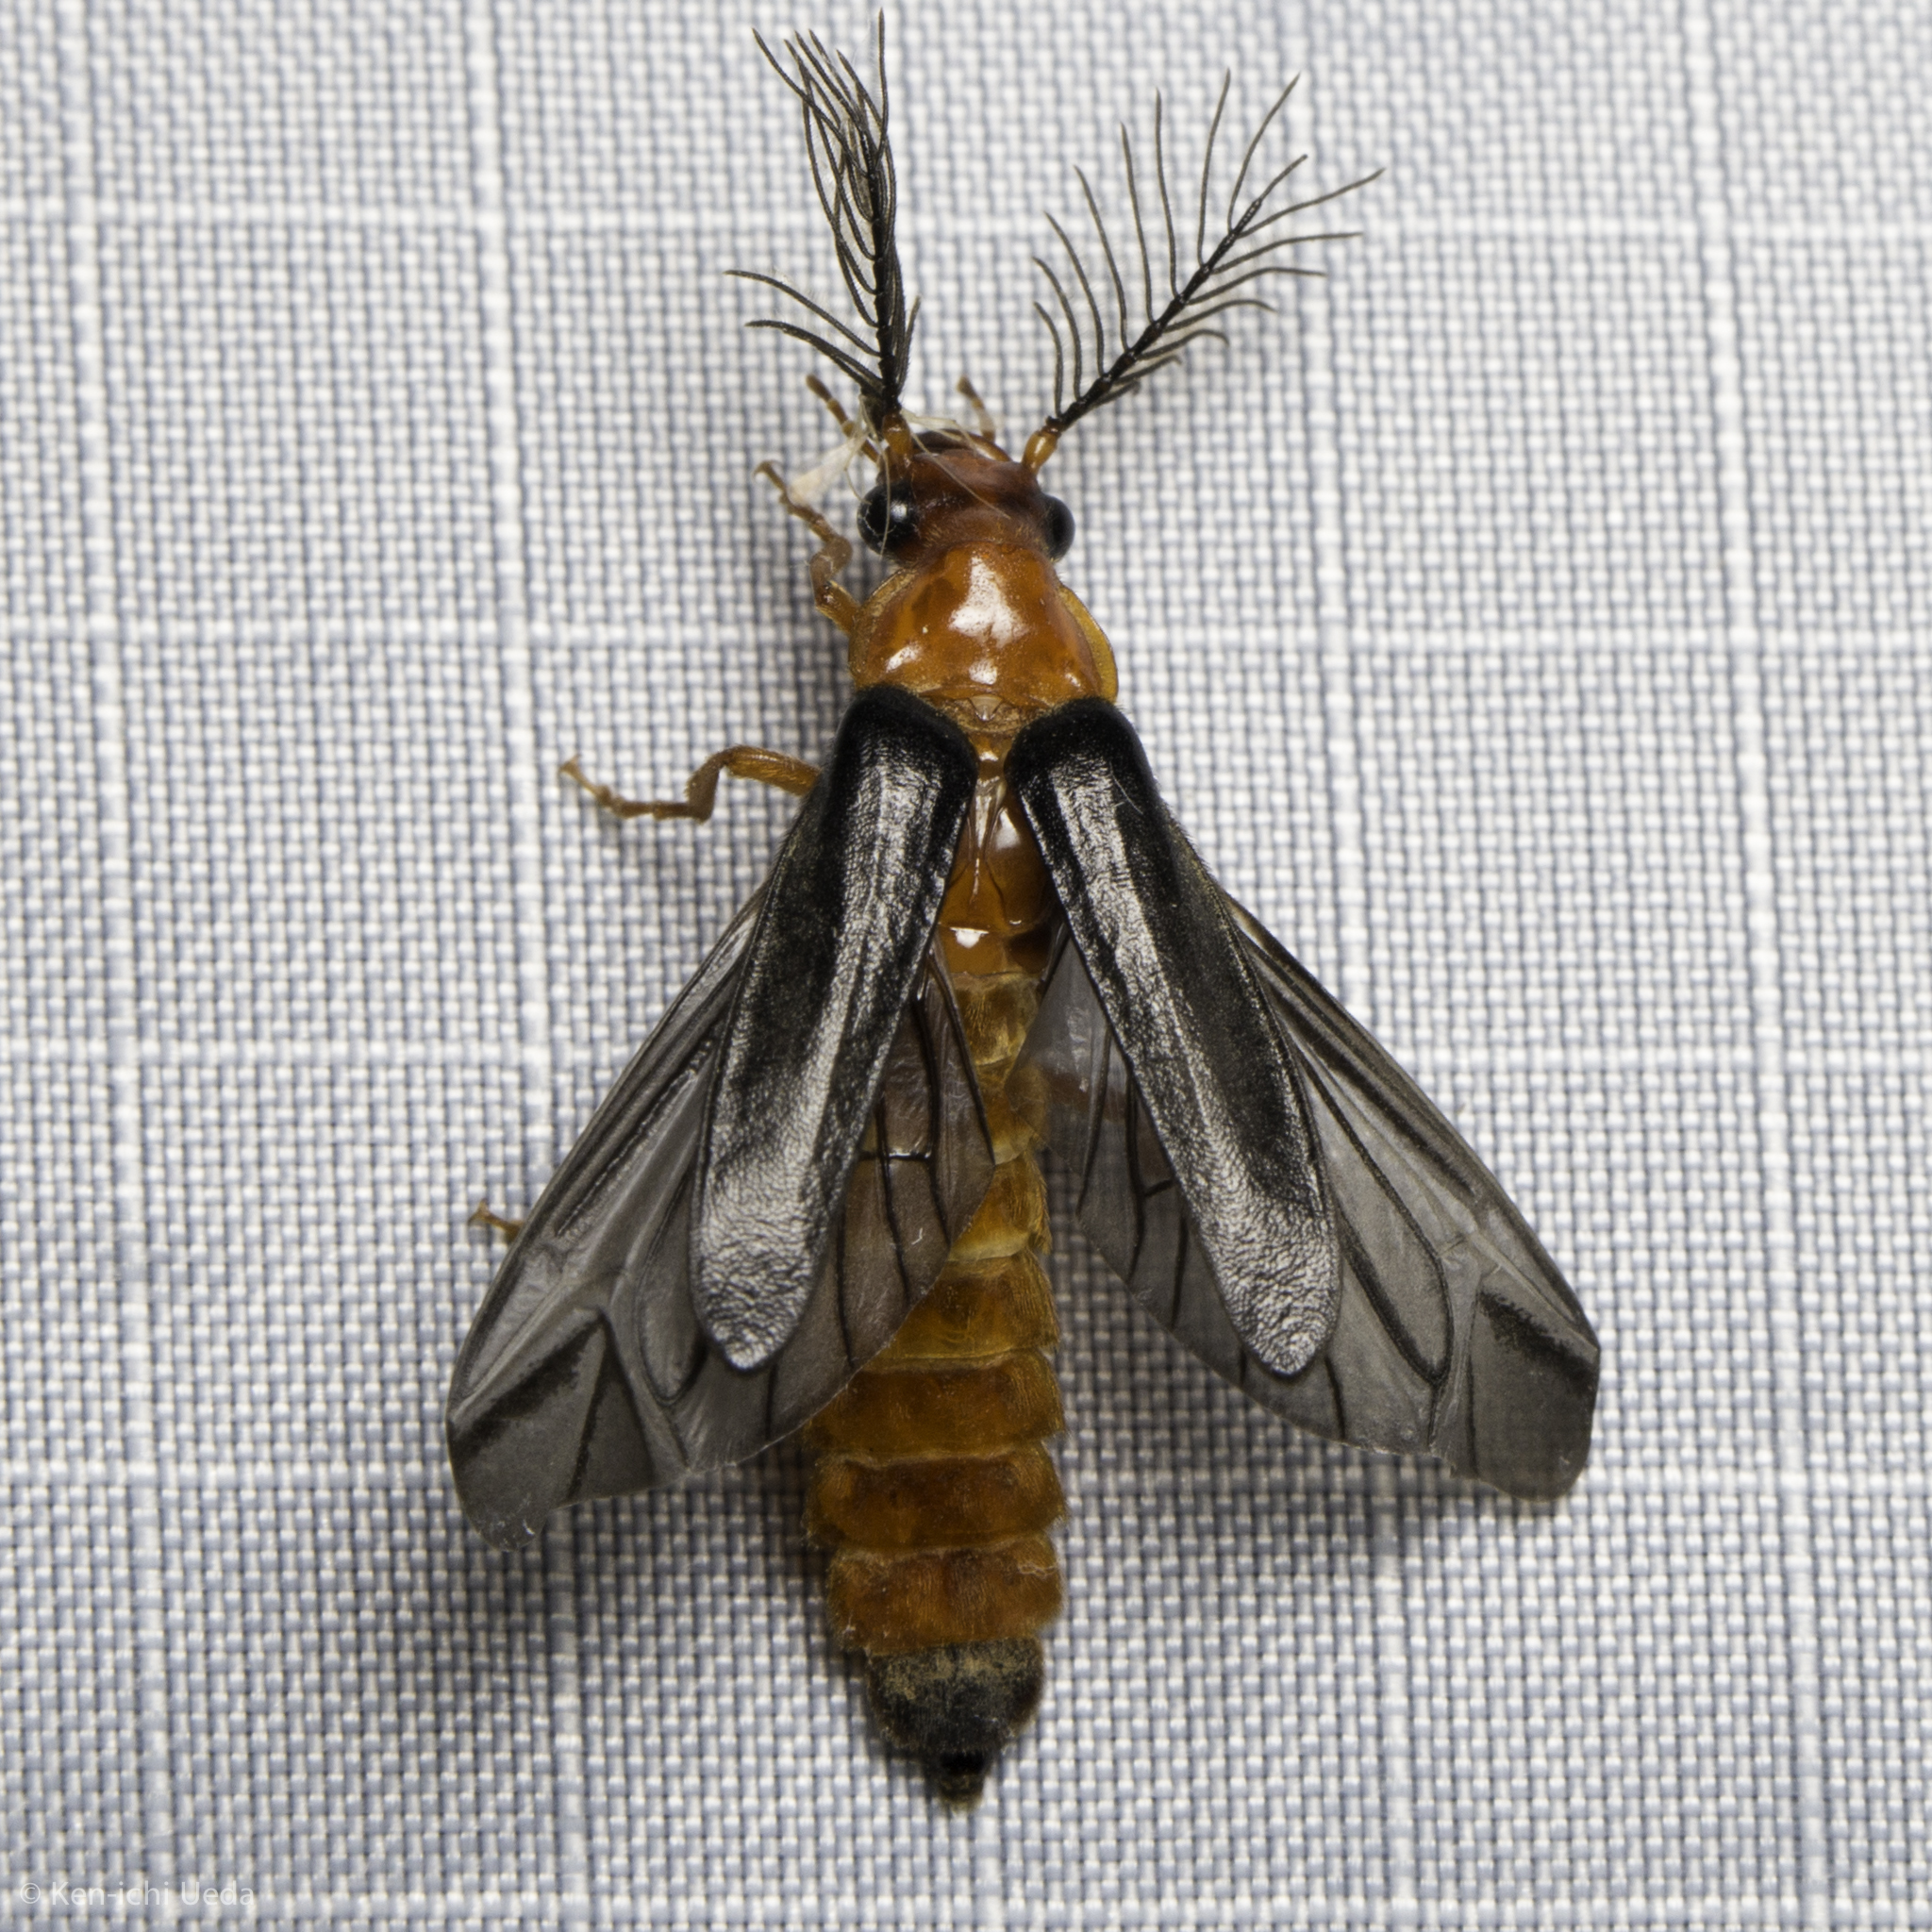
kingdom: Animalia
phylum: Arthropoda
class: Insecta
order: Coleoptera
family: Phengodidae
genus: Zarhipis
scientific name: Zarhipis integripennis
